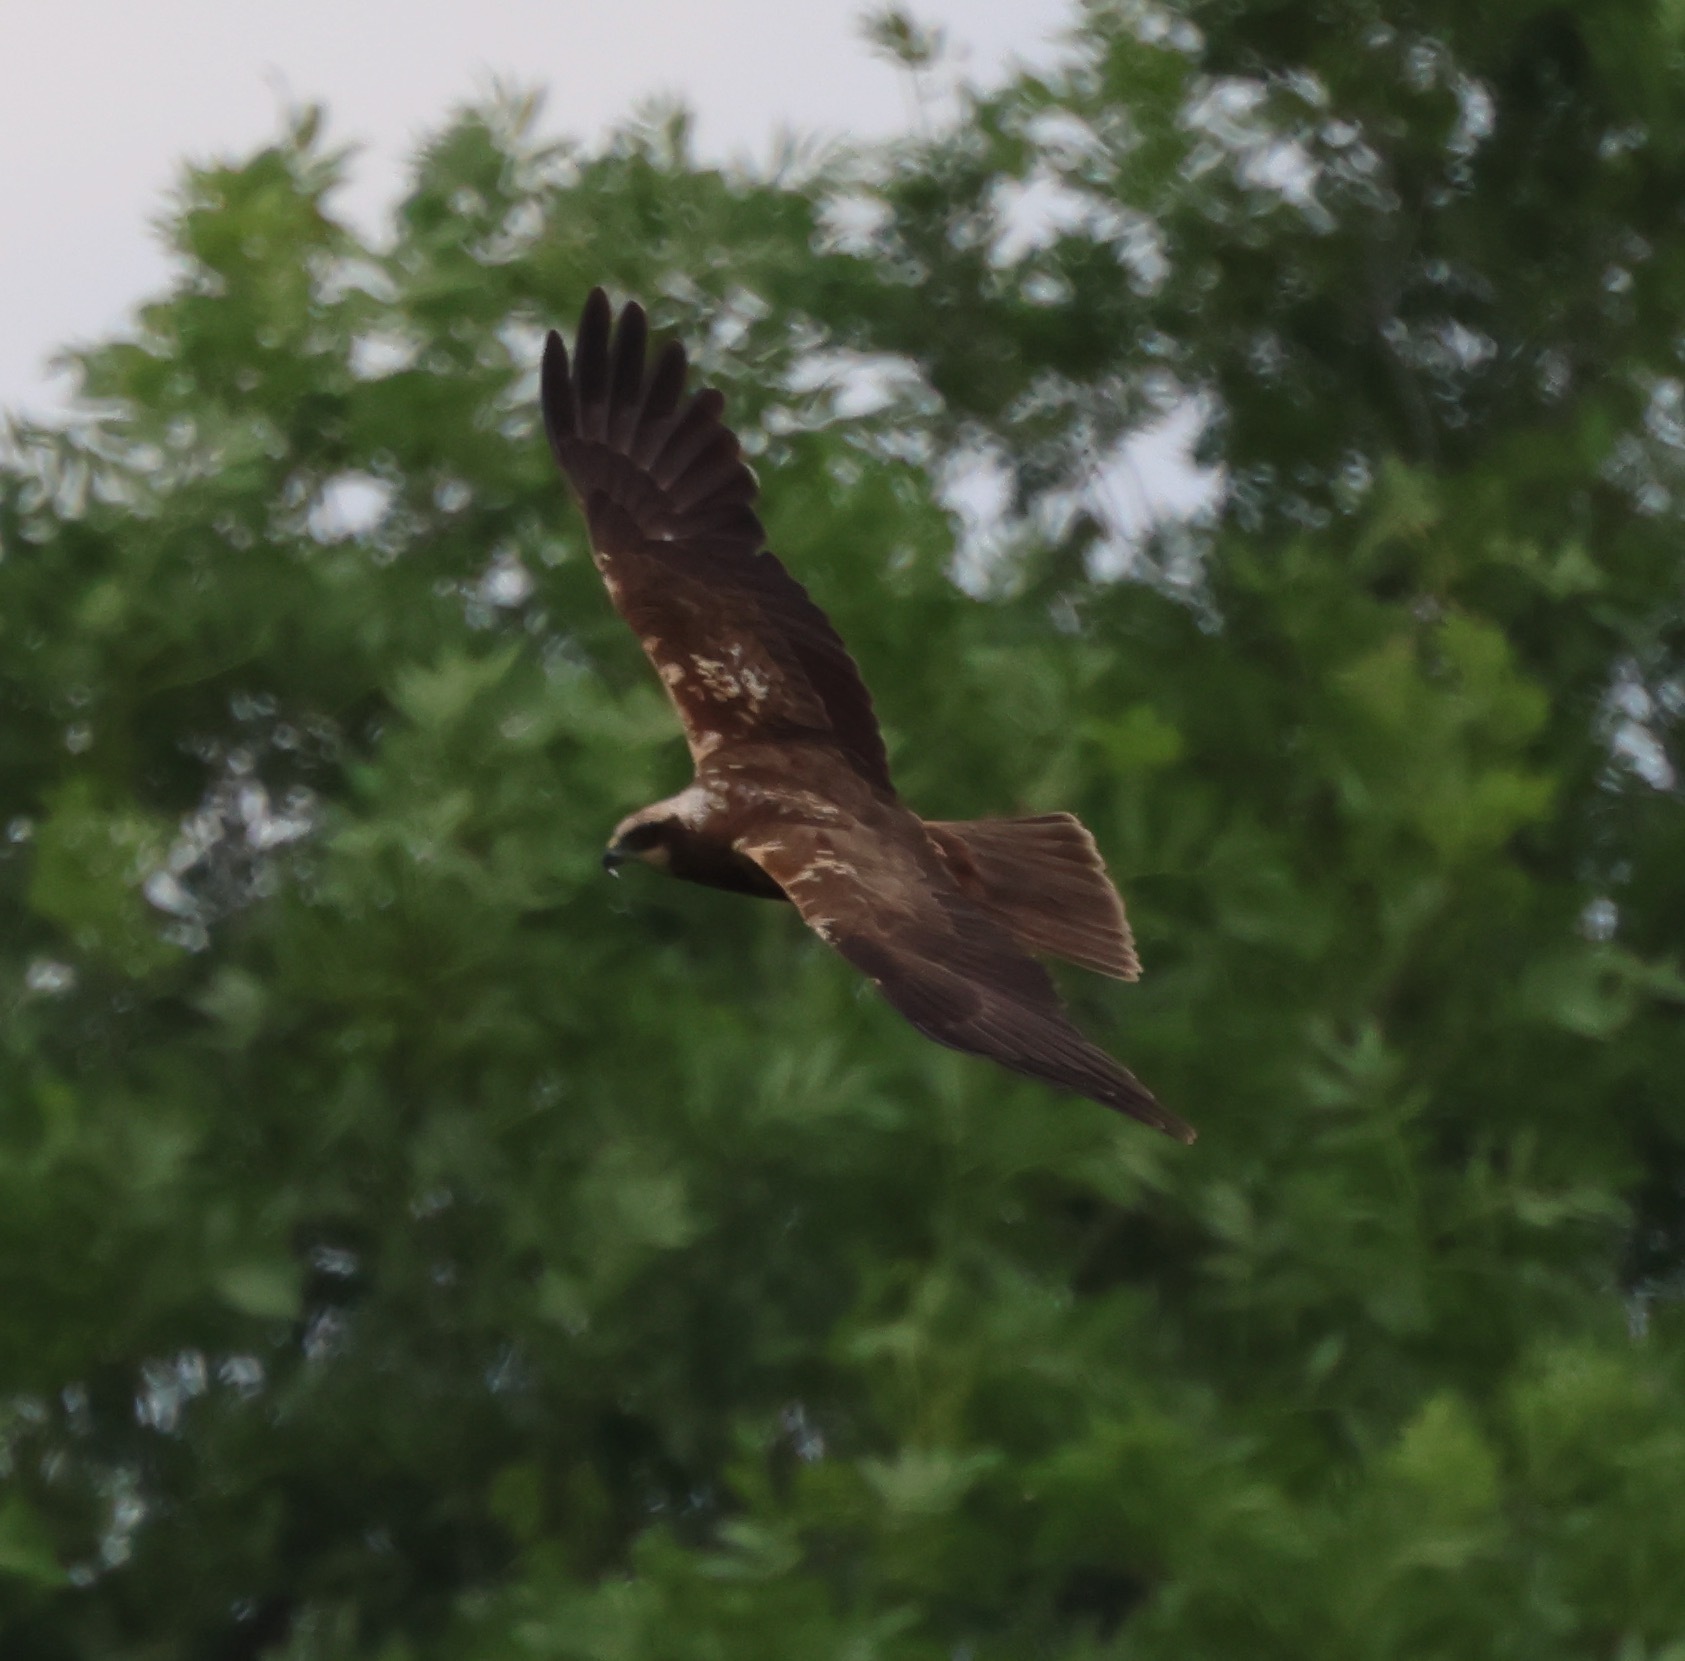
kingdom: Animalia
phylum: Chordata
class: Aves
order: Accipitriformes
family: Accipitridae
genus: Circus
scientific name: Circus aeruginosus
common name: Western marsh harrier
